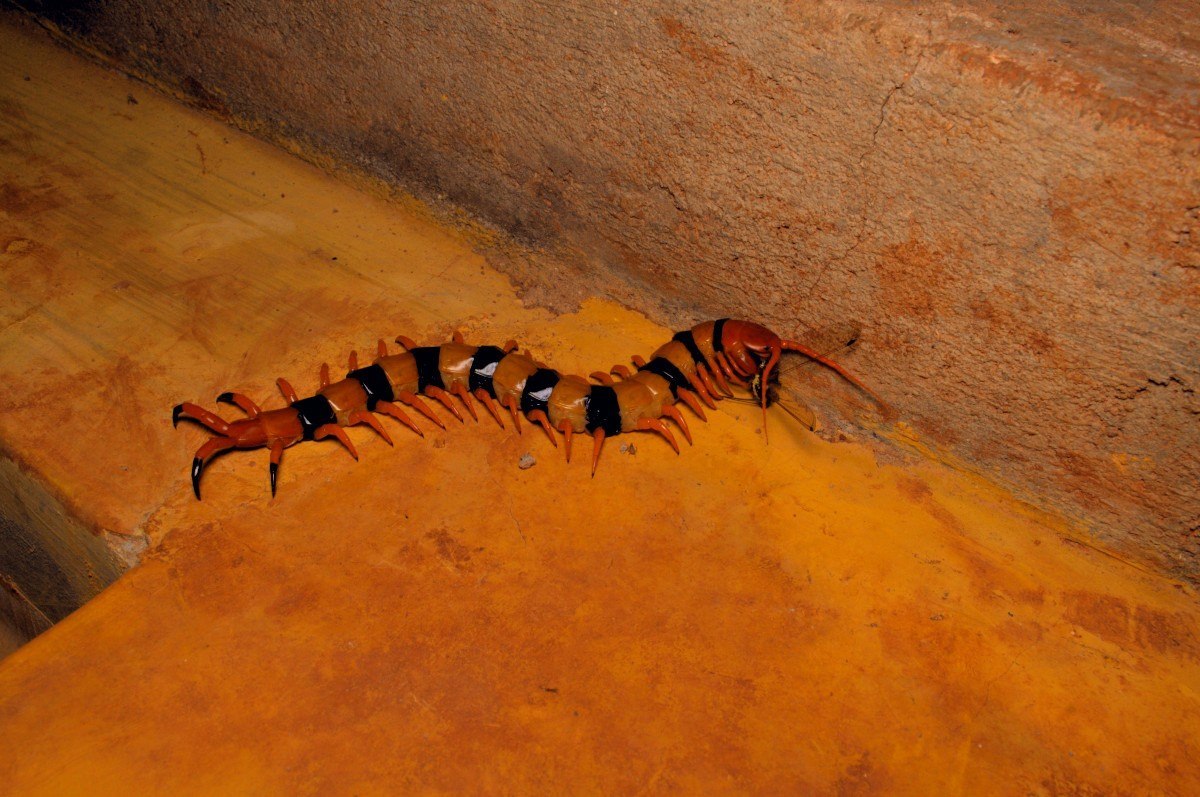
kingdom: Animalia
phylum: Arthropoda
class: Chilopoda
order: Scolopendromorpha
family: Scolopendridae
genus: Scolopendra
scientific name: Scolopendra hardwickei
